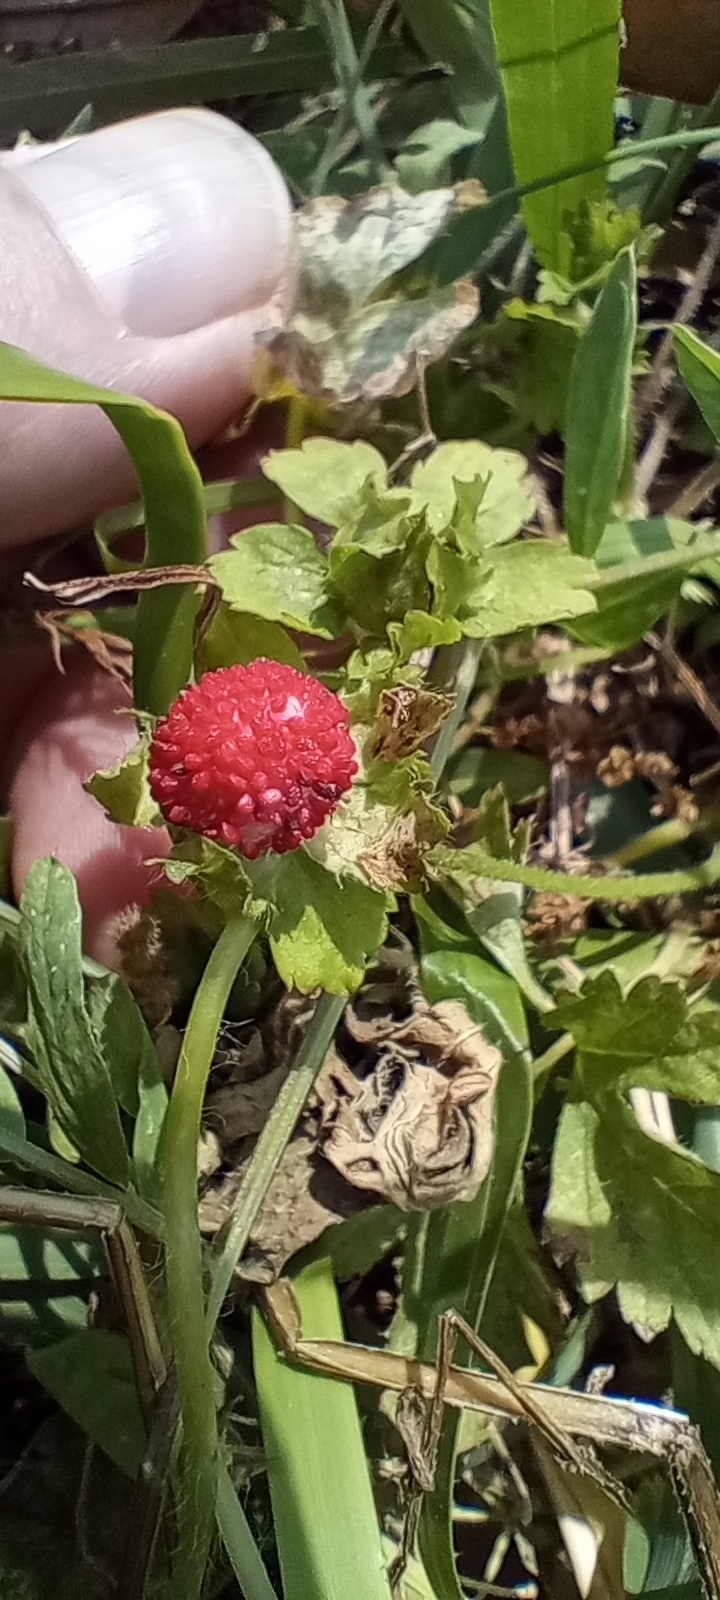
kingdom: Plantae
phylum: Tracheophyta
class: Magnoliopsida
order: Rosales
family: Rosaceae
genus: Potentilla
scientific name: Potentilla indica
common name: Yellow-flowered strawberry
